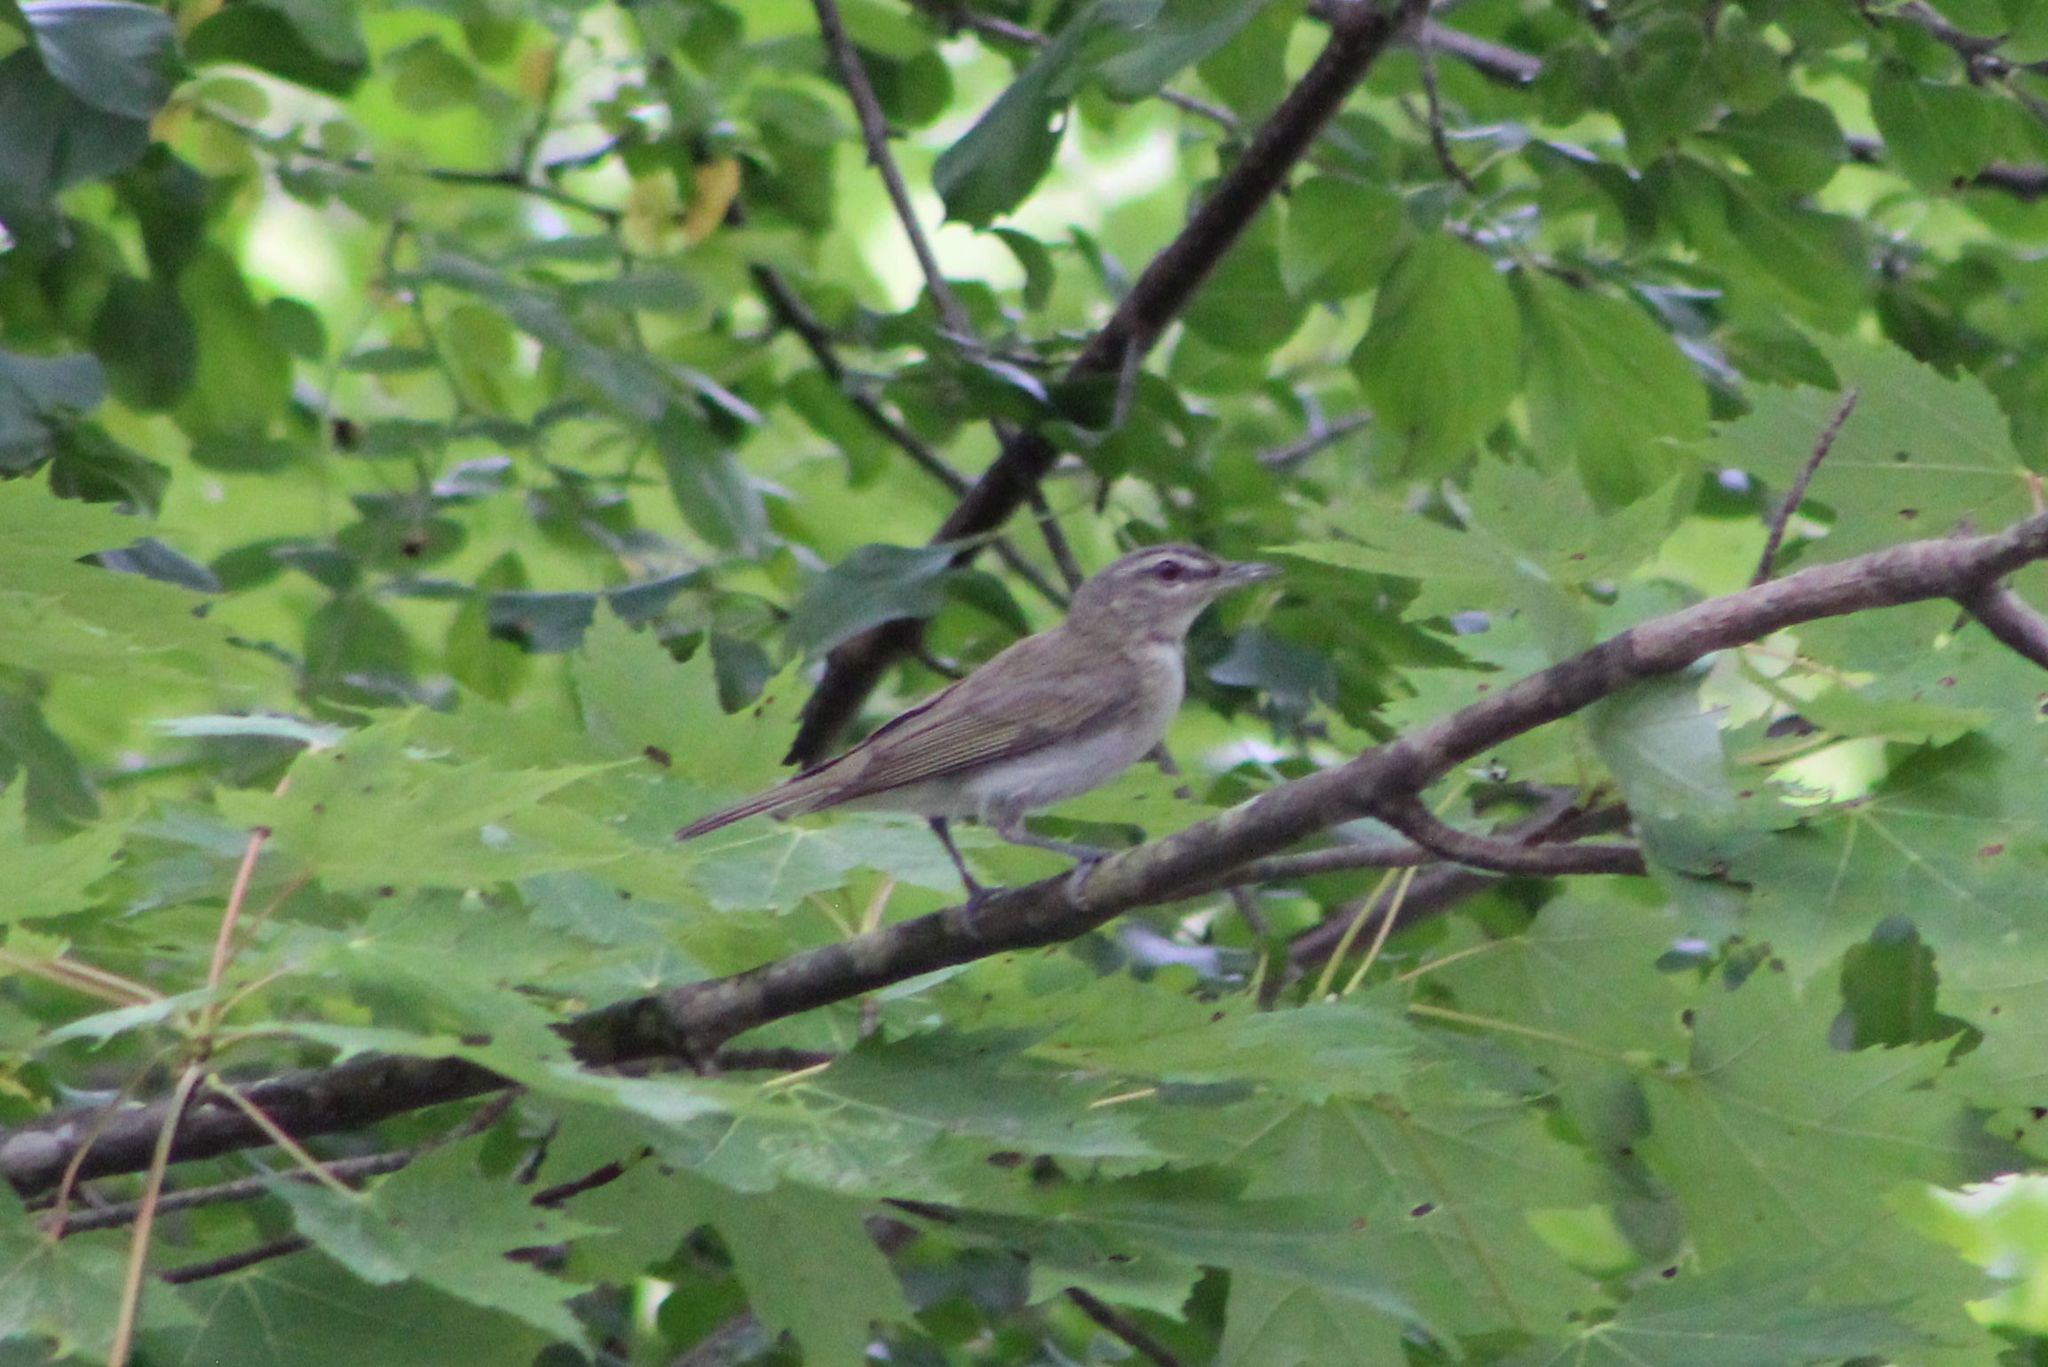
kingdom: Animalia
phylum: Chordata
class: Aves
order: Passeriformes
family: Vireonidae
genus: Vireo
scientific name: Vireo olivaceus
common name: Red-eyed vireo
